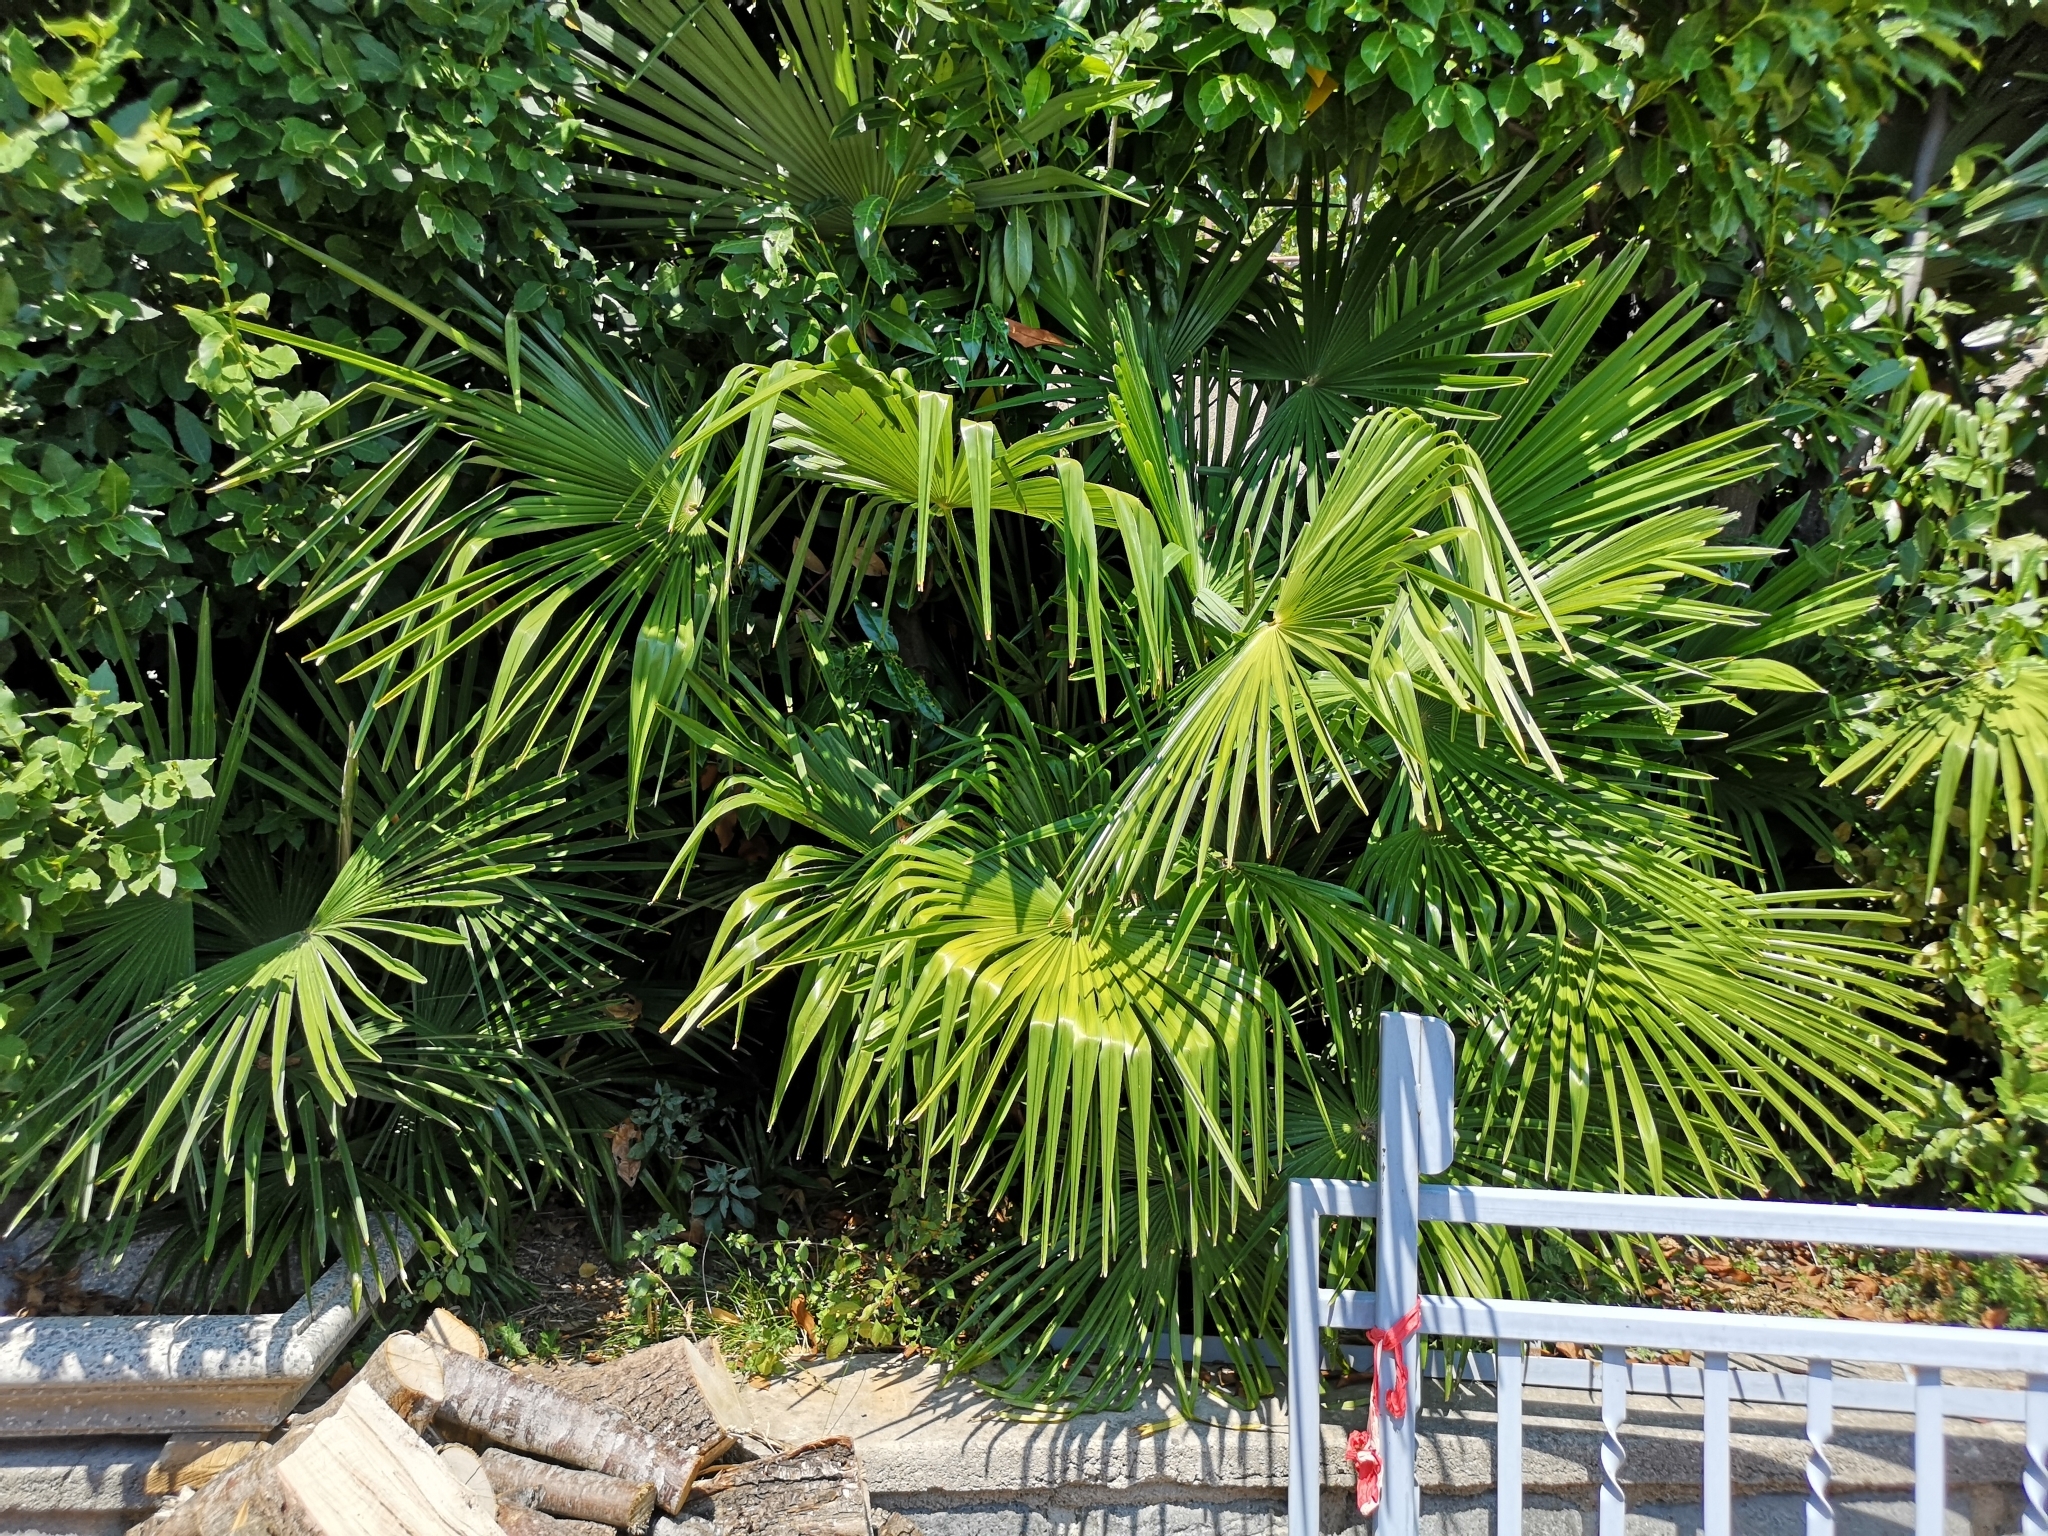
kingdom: Plantae
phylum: Tracheophyta
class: Liliopsida
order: Arecales
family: Arecaceae
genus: Trachycarpus
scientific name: Trachycarpus fortunei
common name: Chusan palm
